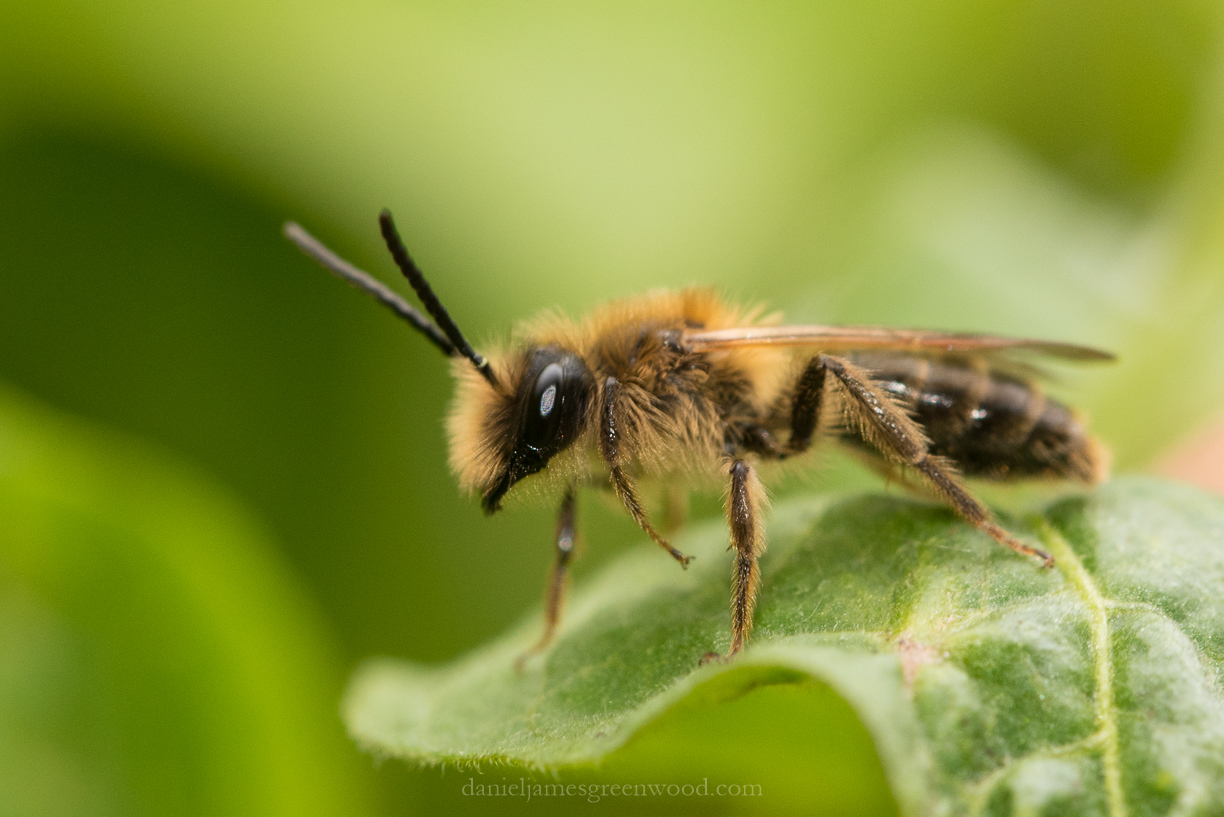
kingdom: Animalia
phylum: Arthropoda
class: Insecta
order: Hymenoptera
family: Andrenidae
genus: Andrena
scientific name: Andrena nigroaenea
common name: Buffish mining bee
